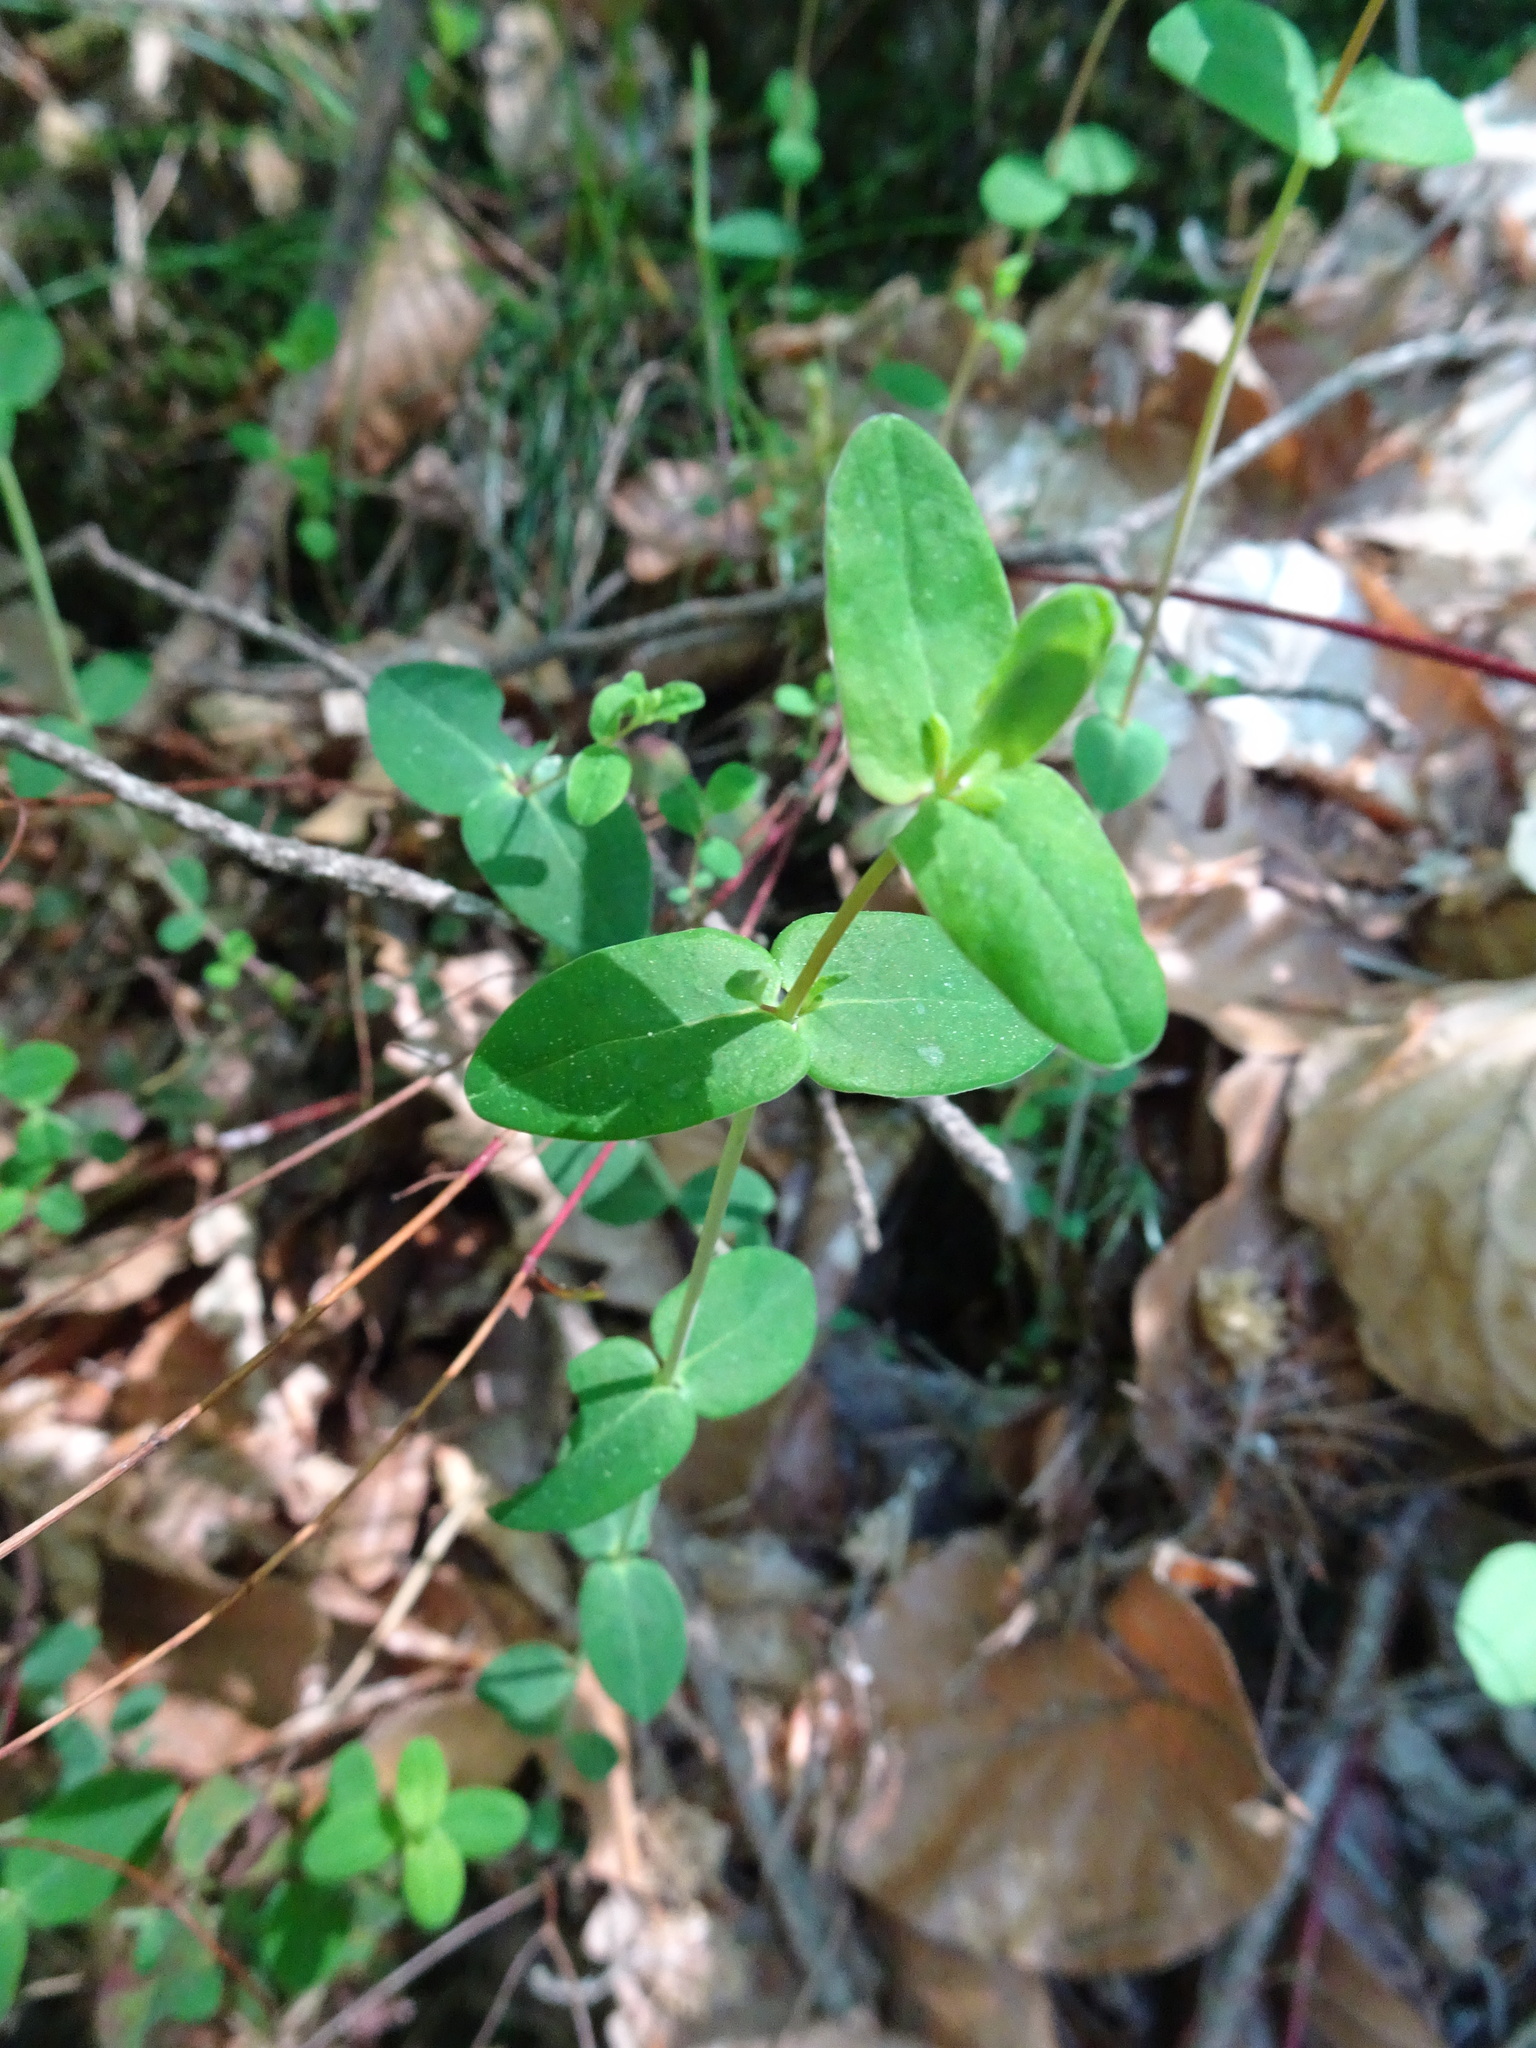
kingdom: Plantae
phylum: Tracheophyta
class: Magnoliopsida
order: Malpighiales
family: Hypericaceae
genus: Hypericum
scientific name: Hypericum pulchrum
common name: Slender st. john's-wort
